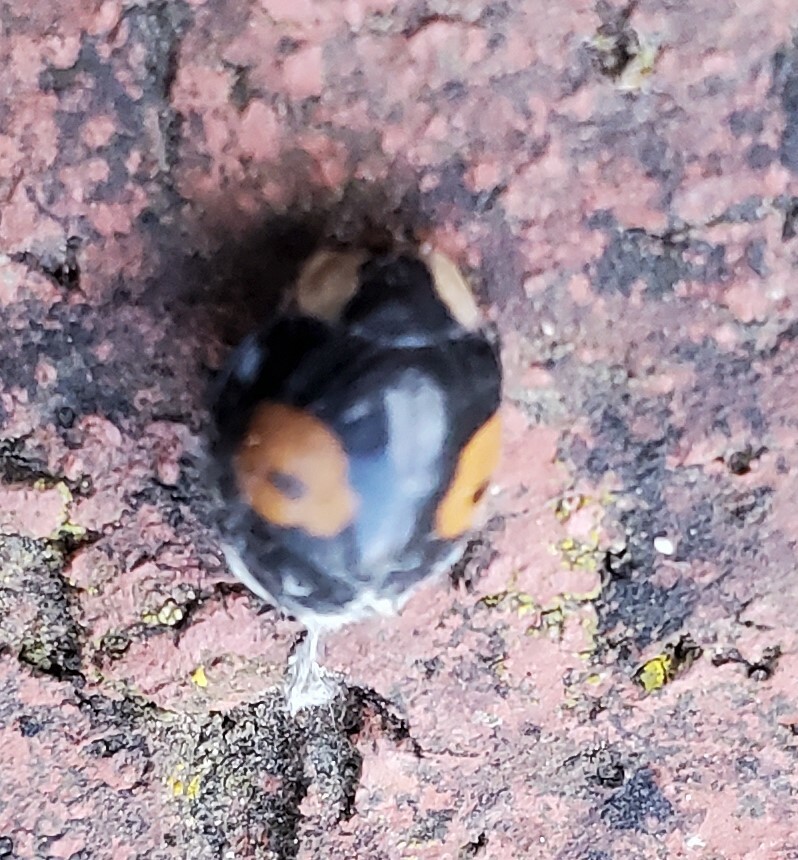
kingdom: Animalia
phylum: Arthropoda
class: Insecta
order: Coleoptera
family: Coccinellidae
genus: Harmonia
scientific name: Harmonia axyridis
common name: Harlequin ladybird
